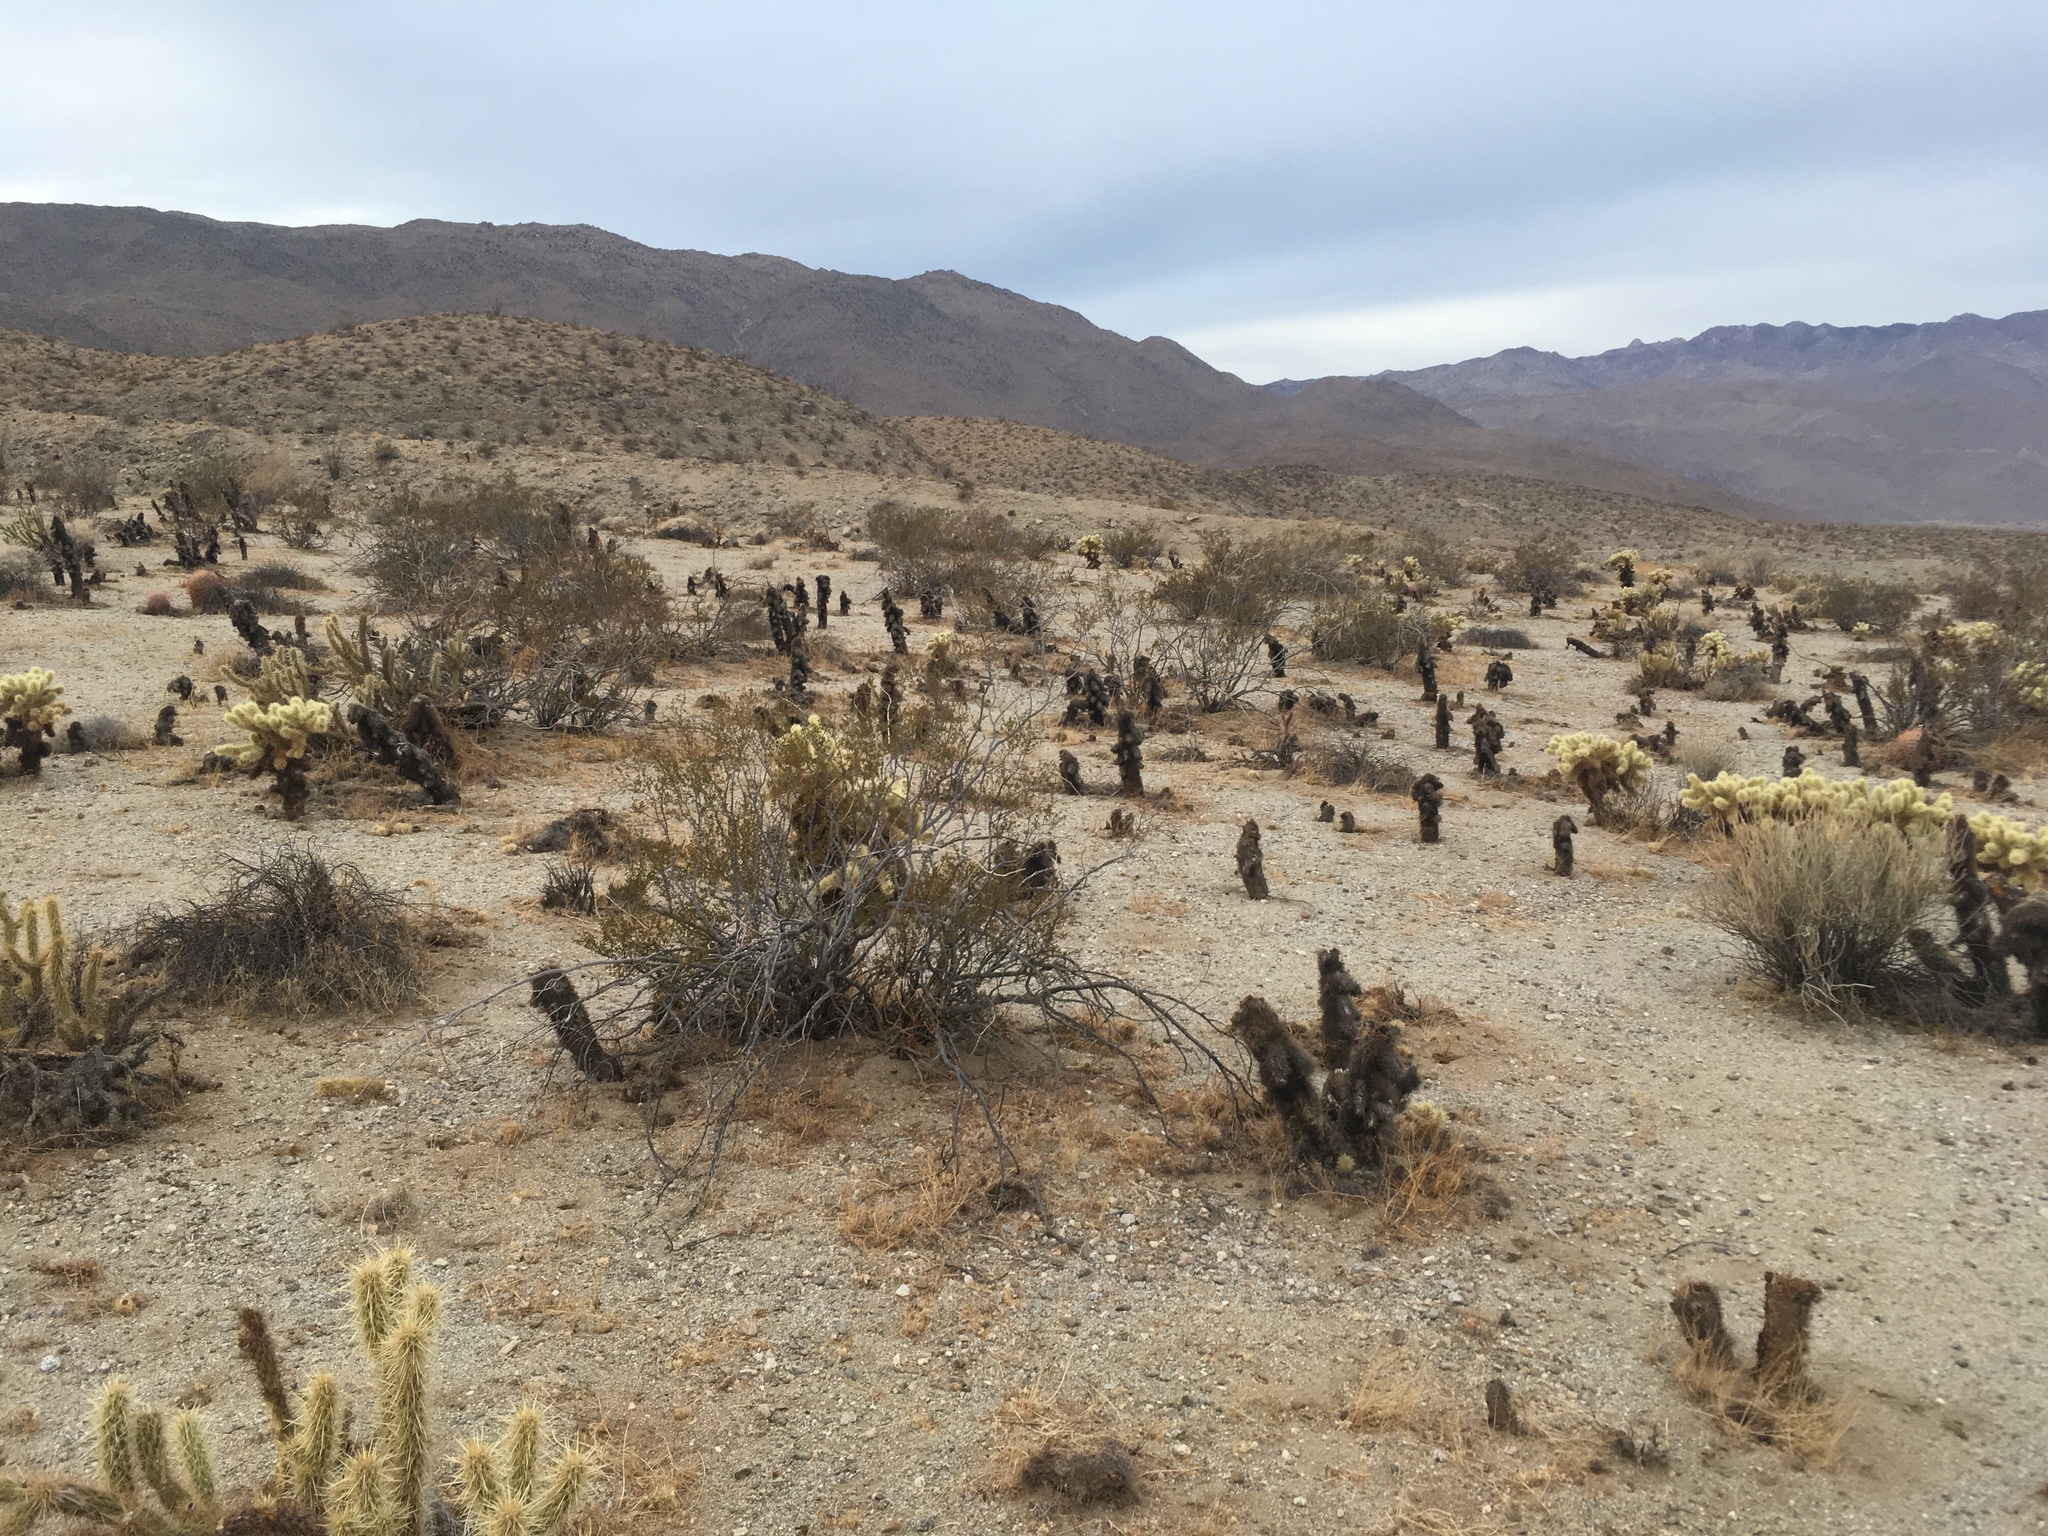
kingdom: Plantae
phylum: Tracheophyta
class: Magnoliopsida
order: Caryophyllales
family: Cactaceae
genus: Cylindropuntia
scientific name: Cylindropuntia fosbergii
